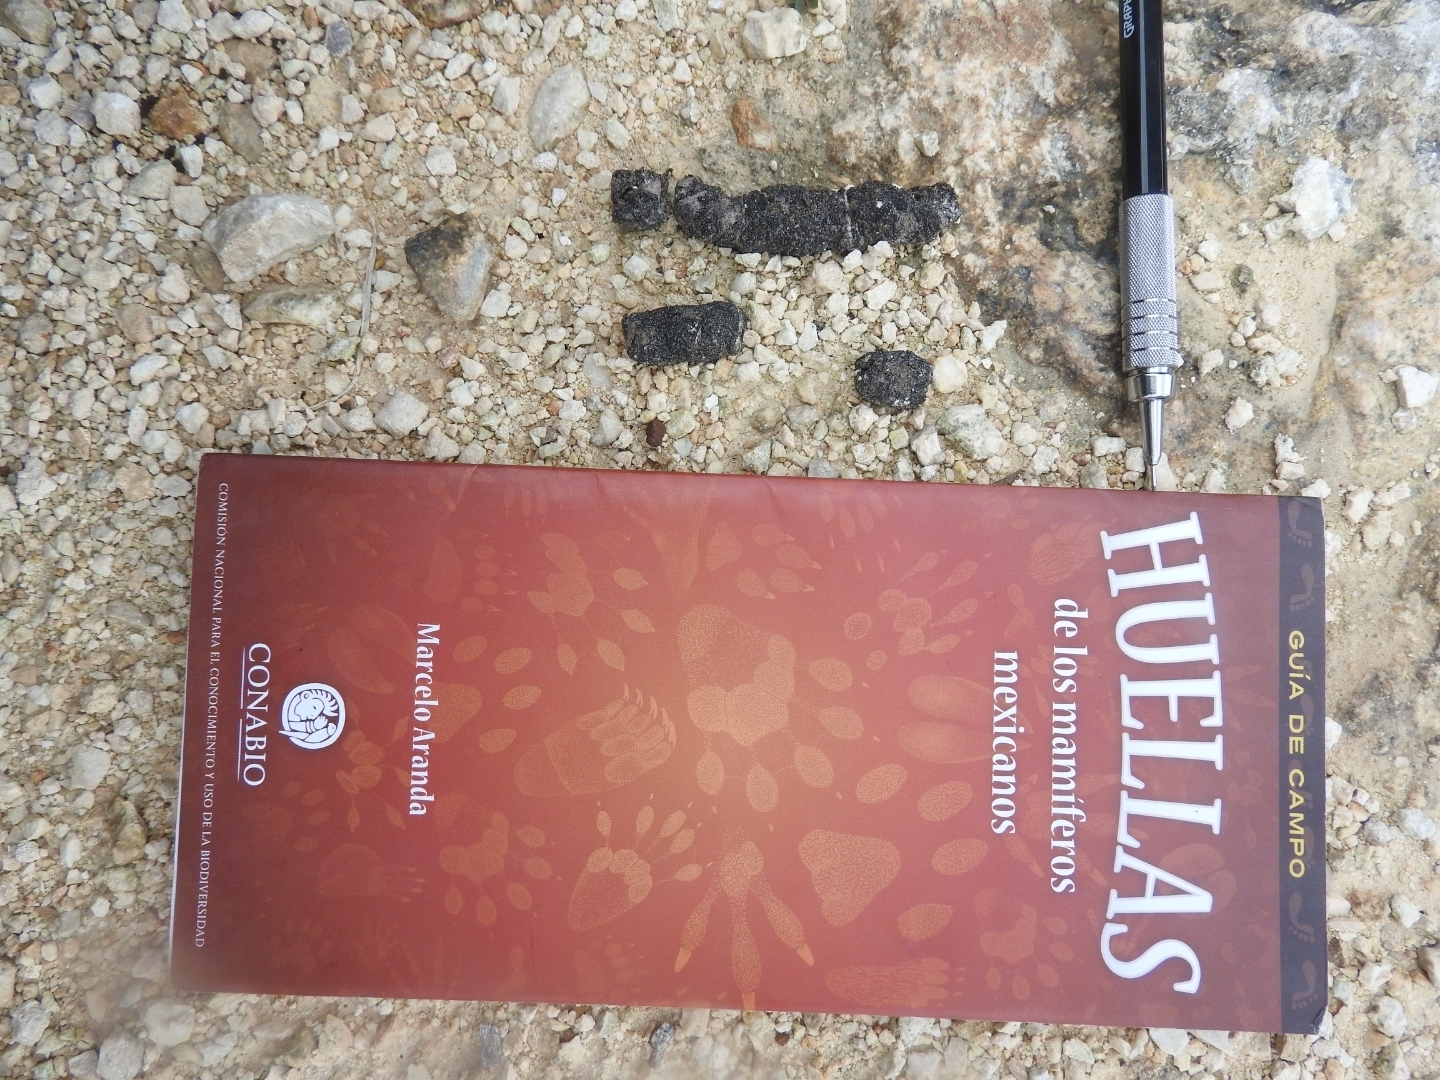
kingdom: Animalia
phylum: Chordata
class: Mammalia
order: Carnivora
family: Felidae
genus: Leopardus
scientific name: Leopardus pardalis
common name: Ocelot
